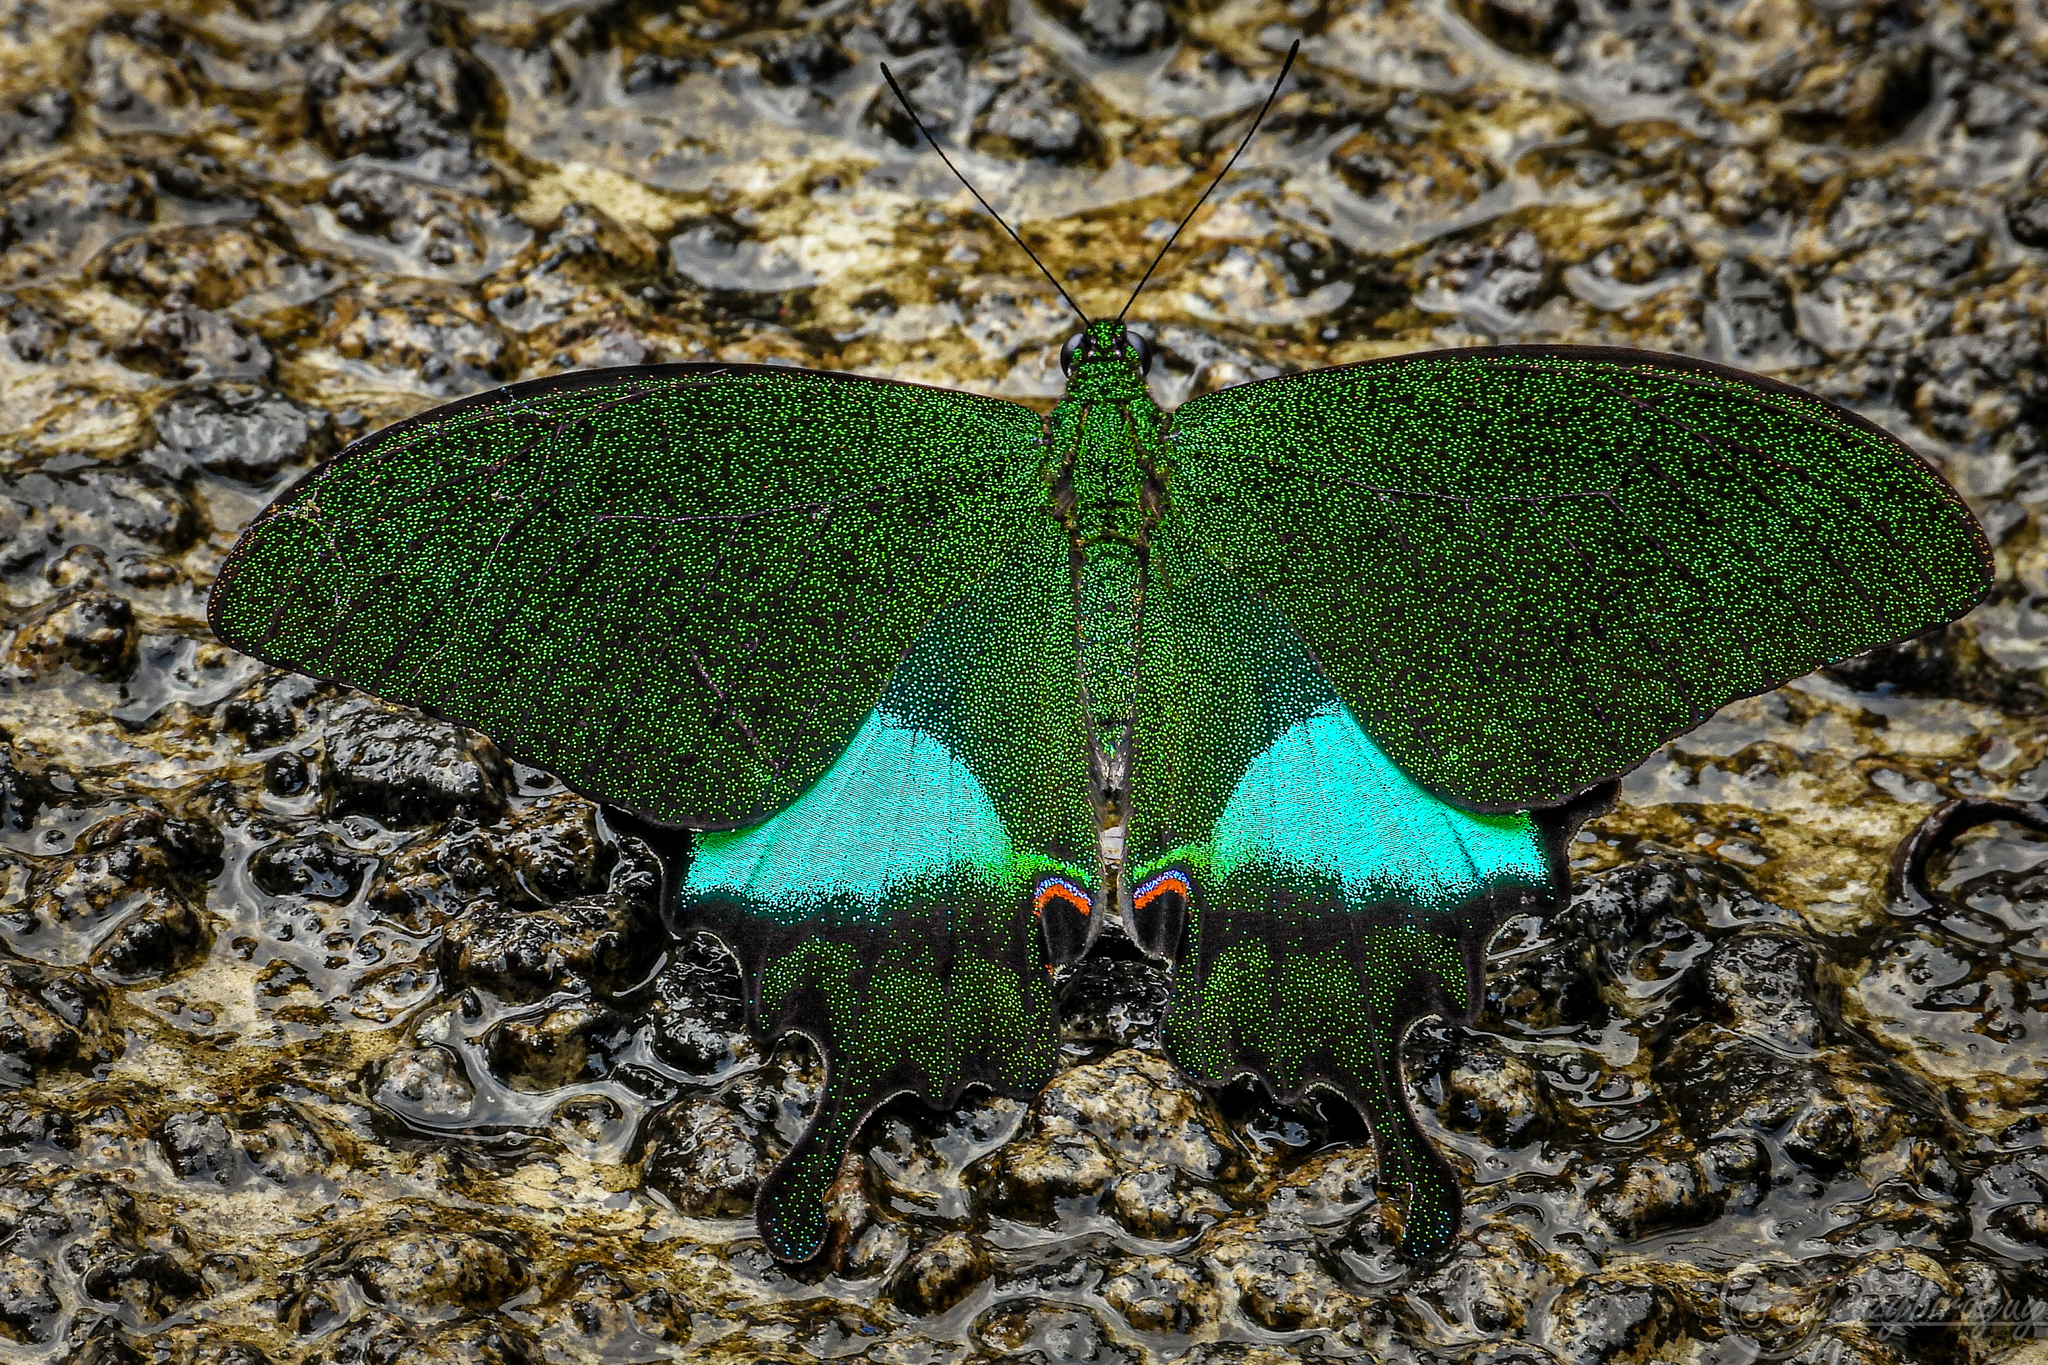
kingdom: Animalia
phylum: Arthropoda
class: Insecta
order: Lepidoptera
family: Papilionidae
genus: Papilio
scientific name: Papilio paris
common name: Paris peacock
